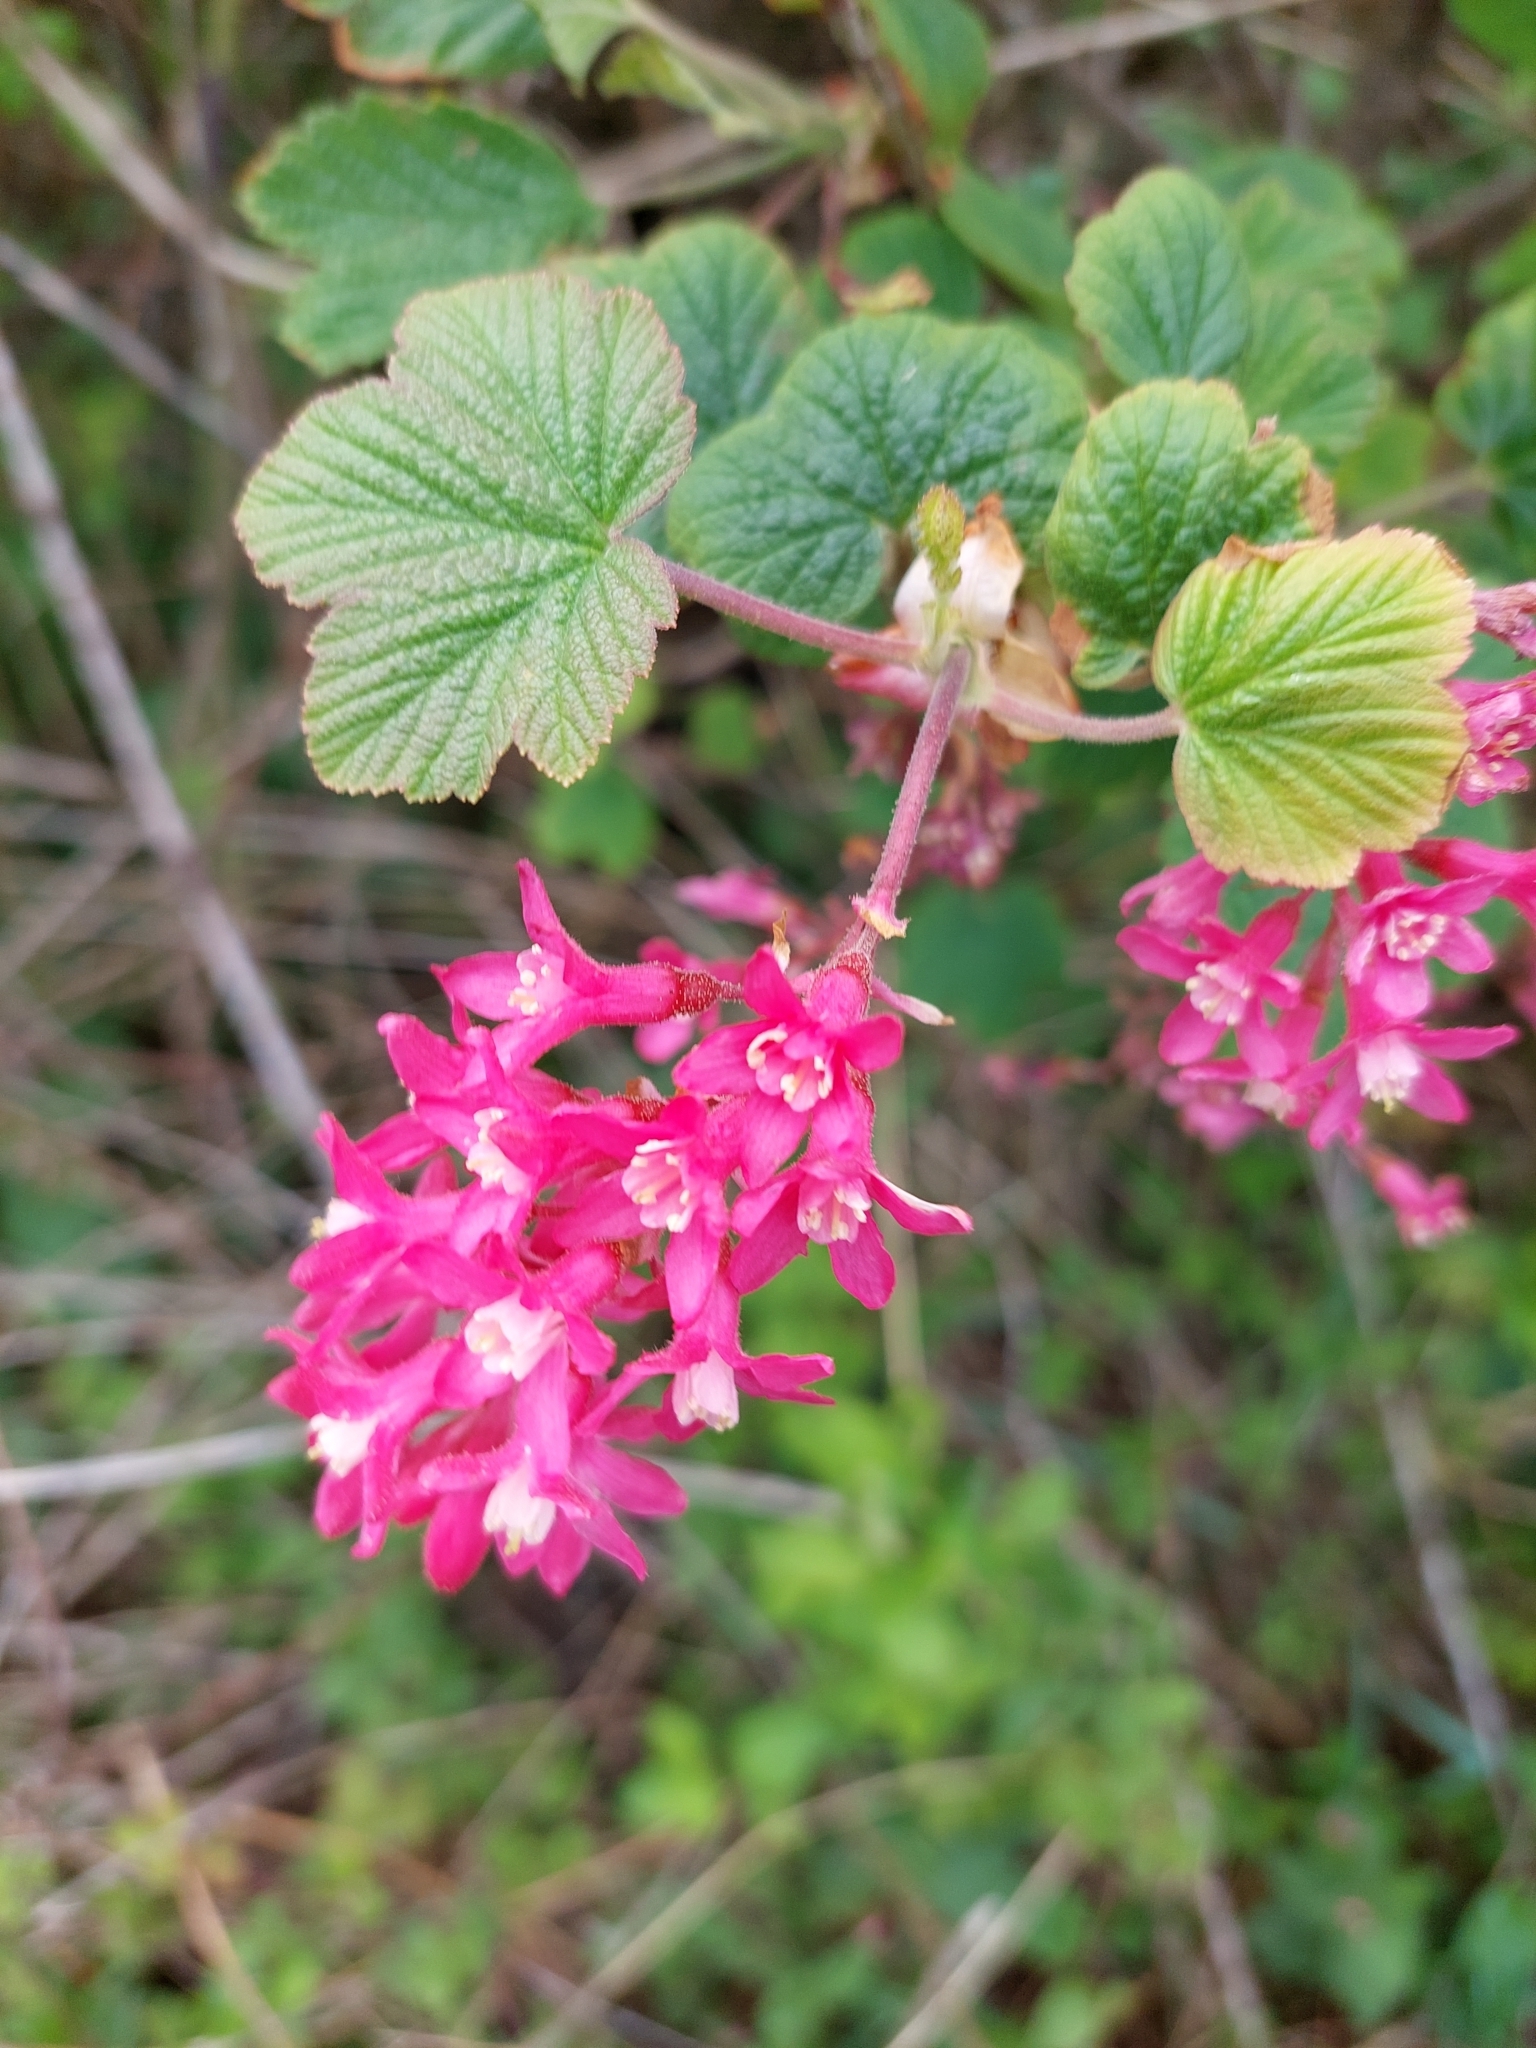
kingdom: Plantae
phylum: Tracheophyta
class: Magnoliopsida
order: Saxifragales
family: Grossulariaceae
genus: Ribes
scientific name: Ribes sanguineum
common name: Flowering currant
